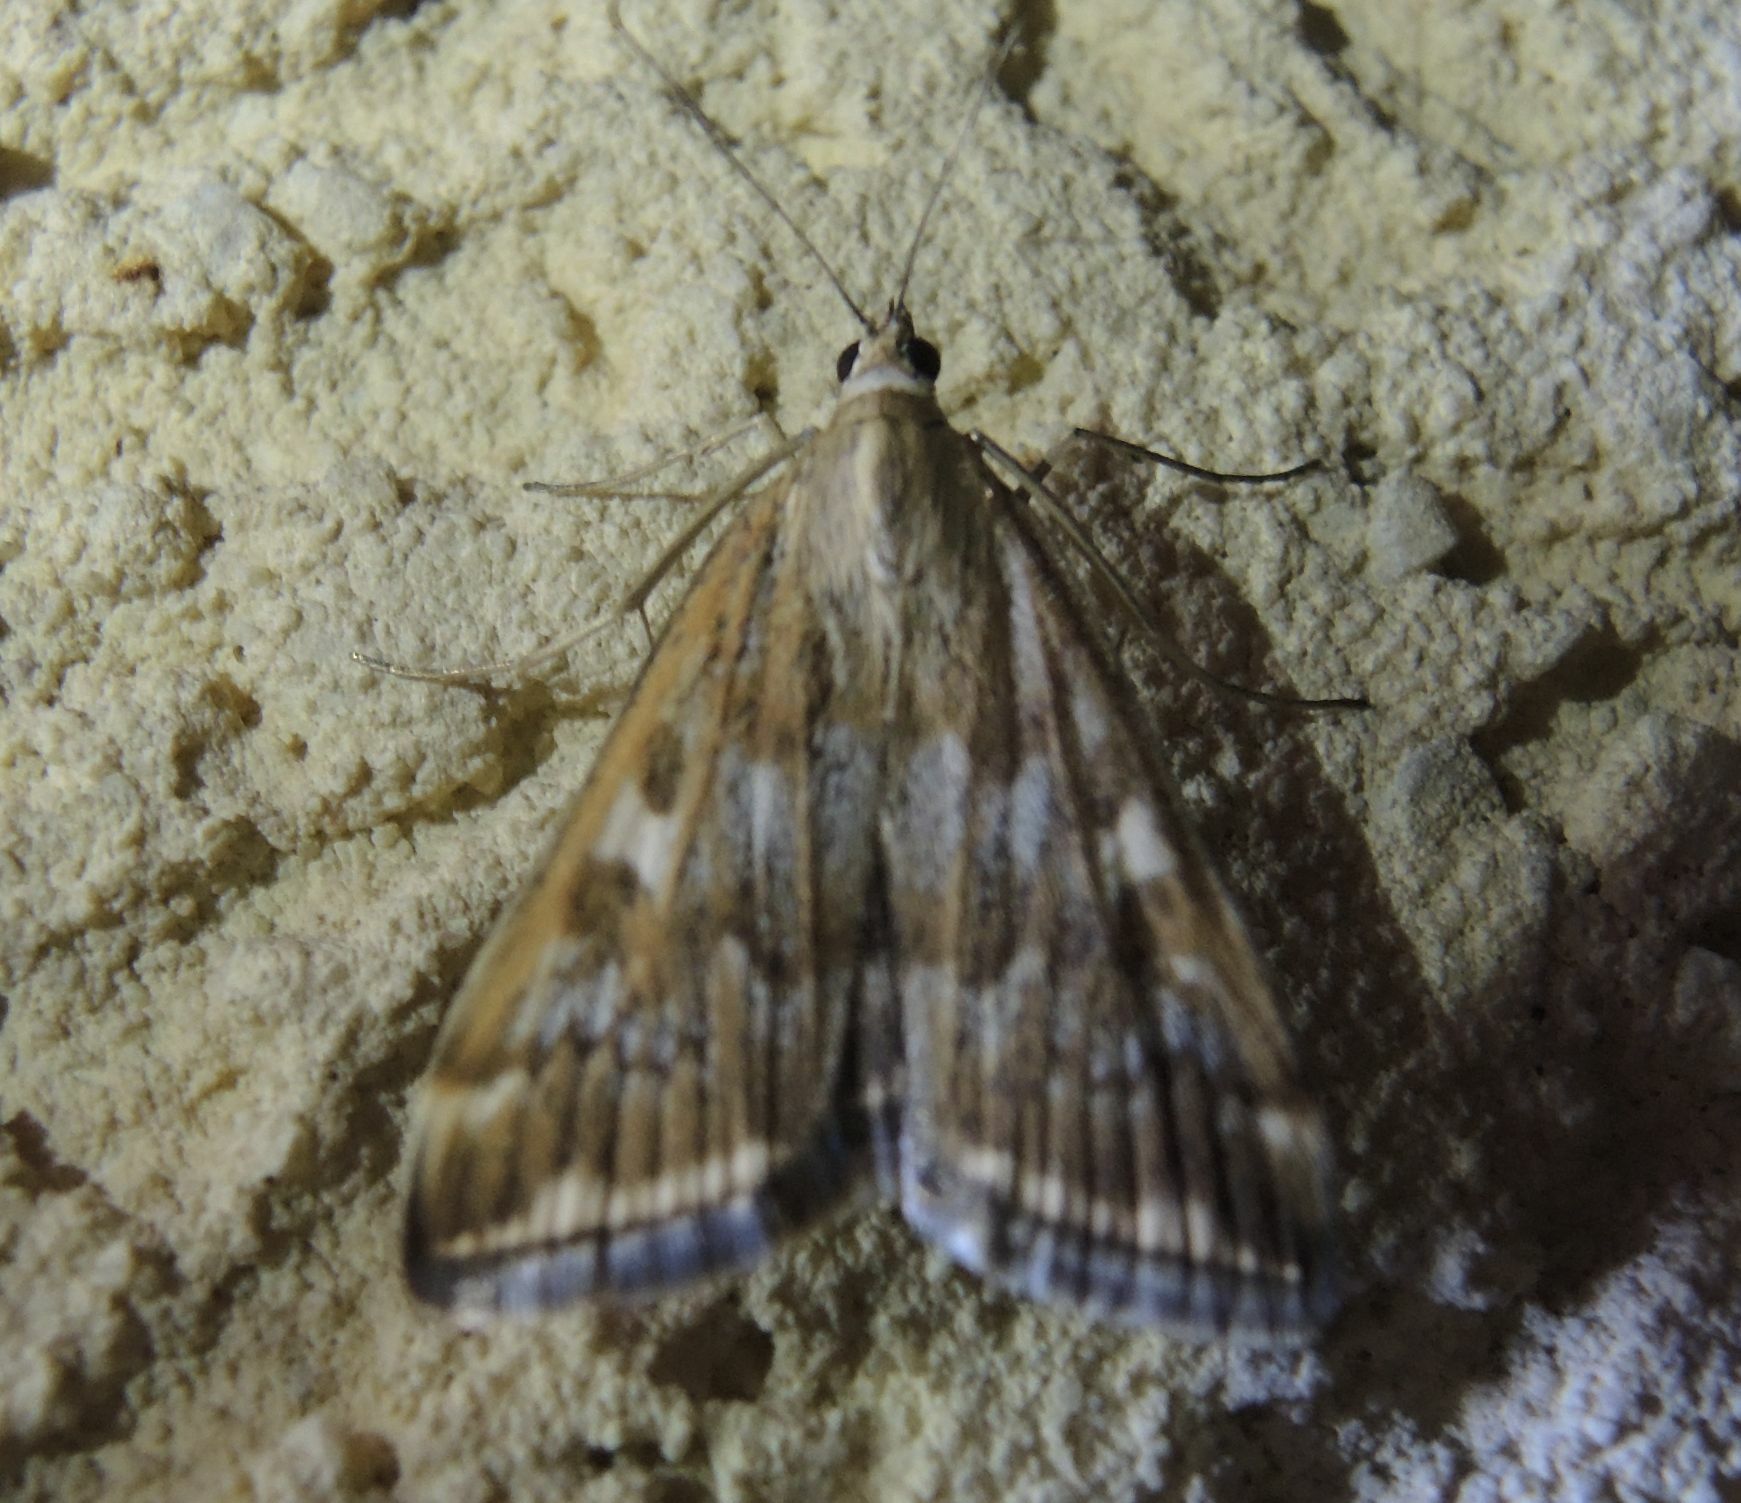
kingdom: Animalia
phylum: Arthropoda
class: Insecta
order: Lepidoptera
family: Crambidae
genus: Loxostege
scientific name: Loxostege sticticalis
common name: Crambid moth
